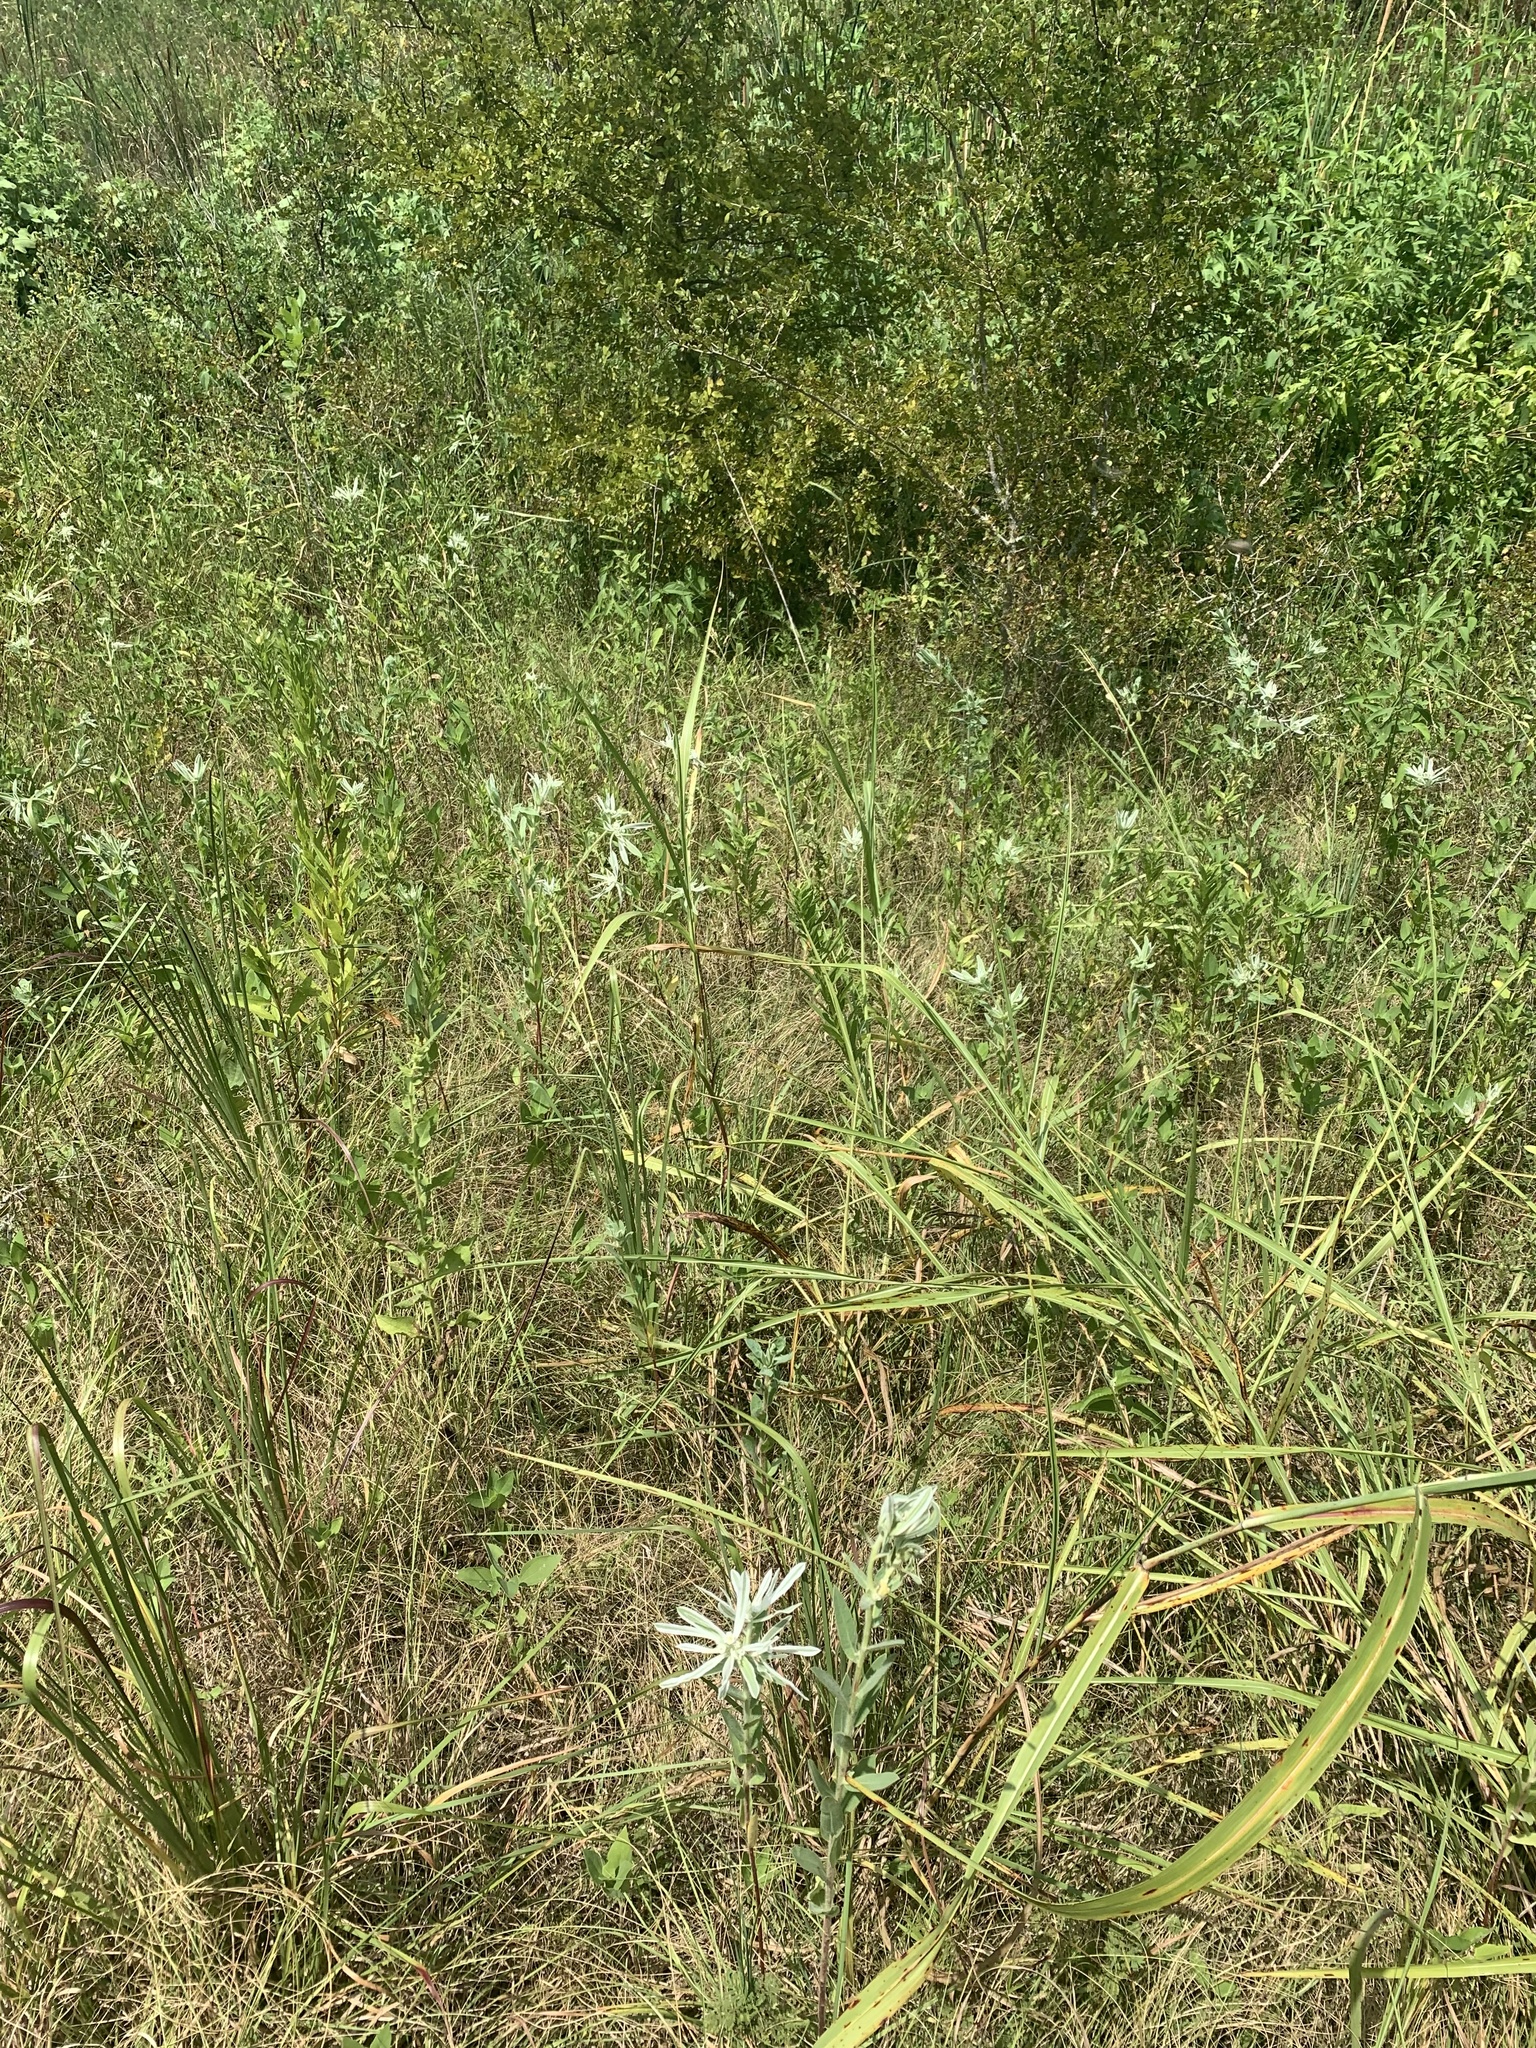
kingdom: Plantae
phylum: Tracheophyta
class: Magnoliopsida
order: Malpighiales
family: Euphorbiaceae
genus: Euphorbia
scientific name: Euphorbia bicolor
